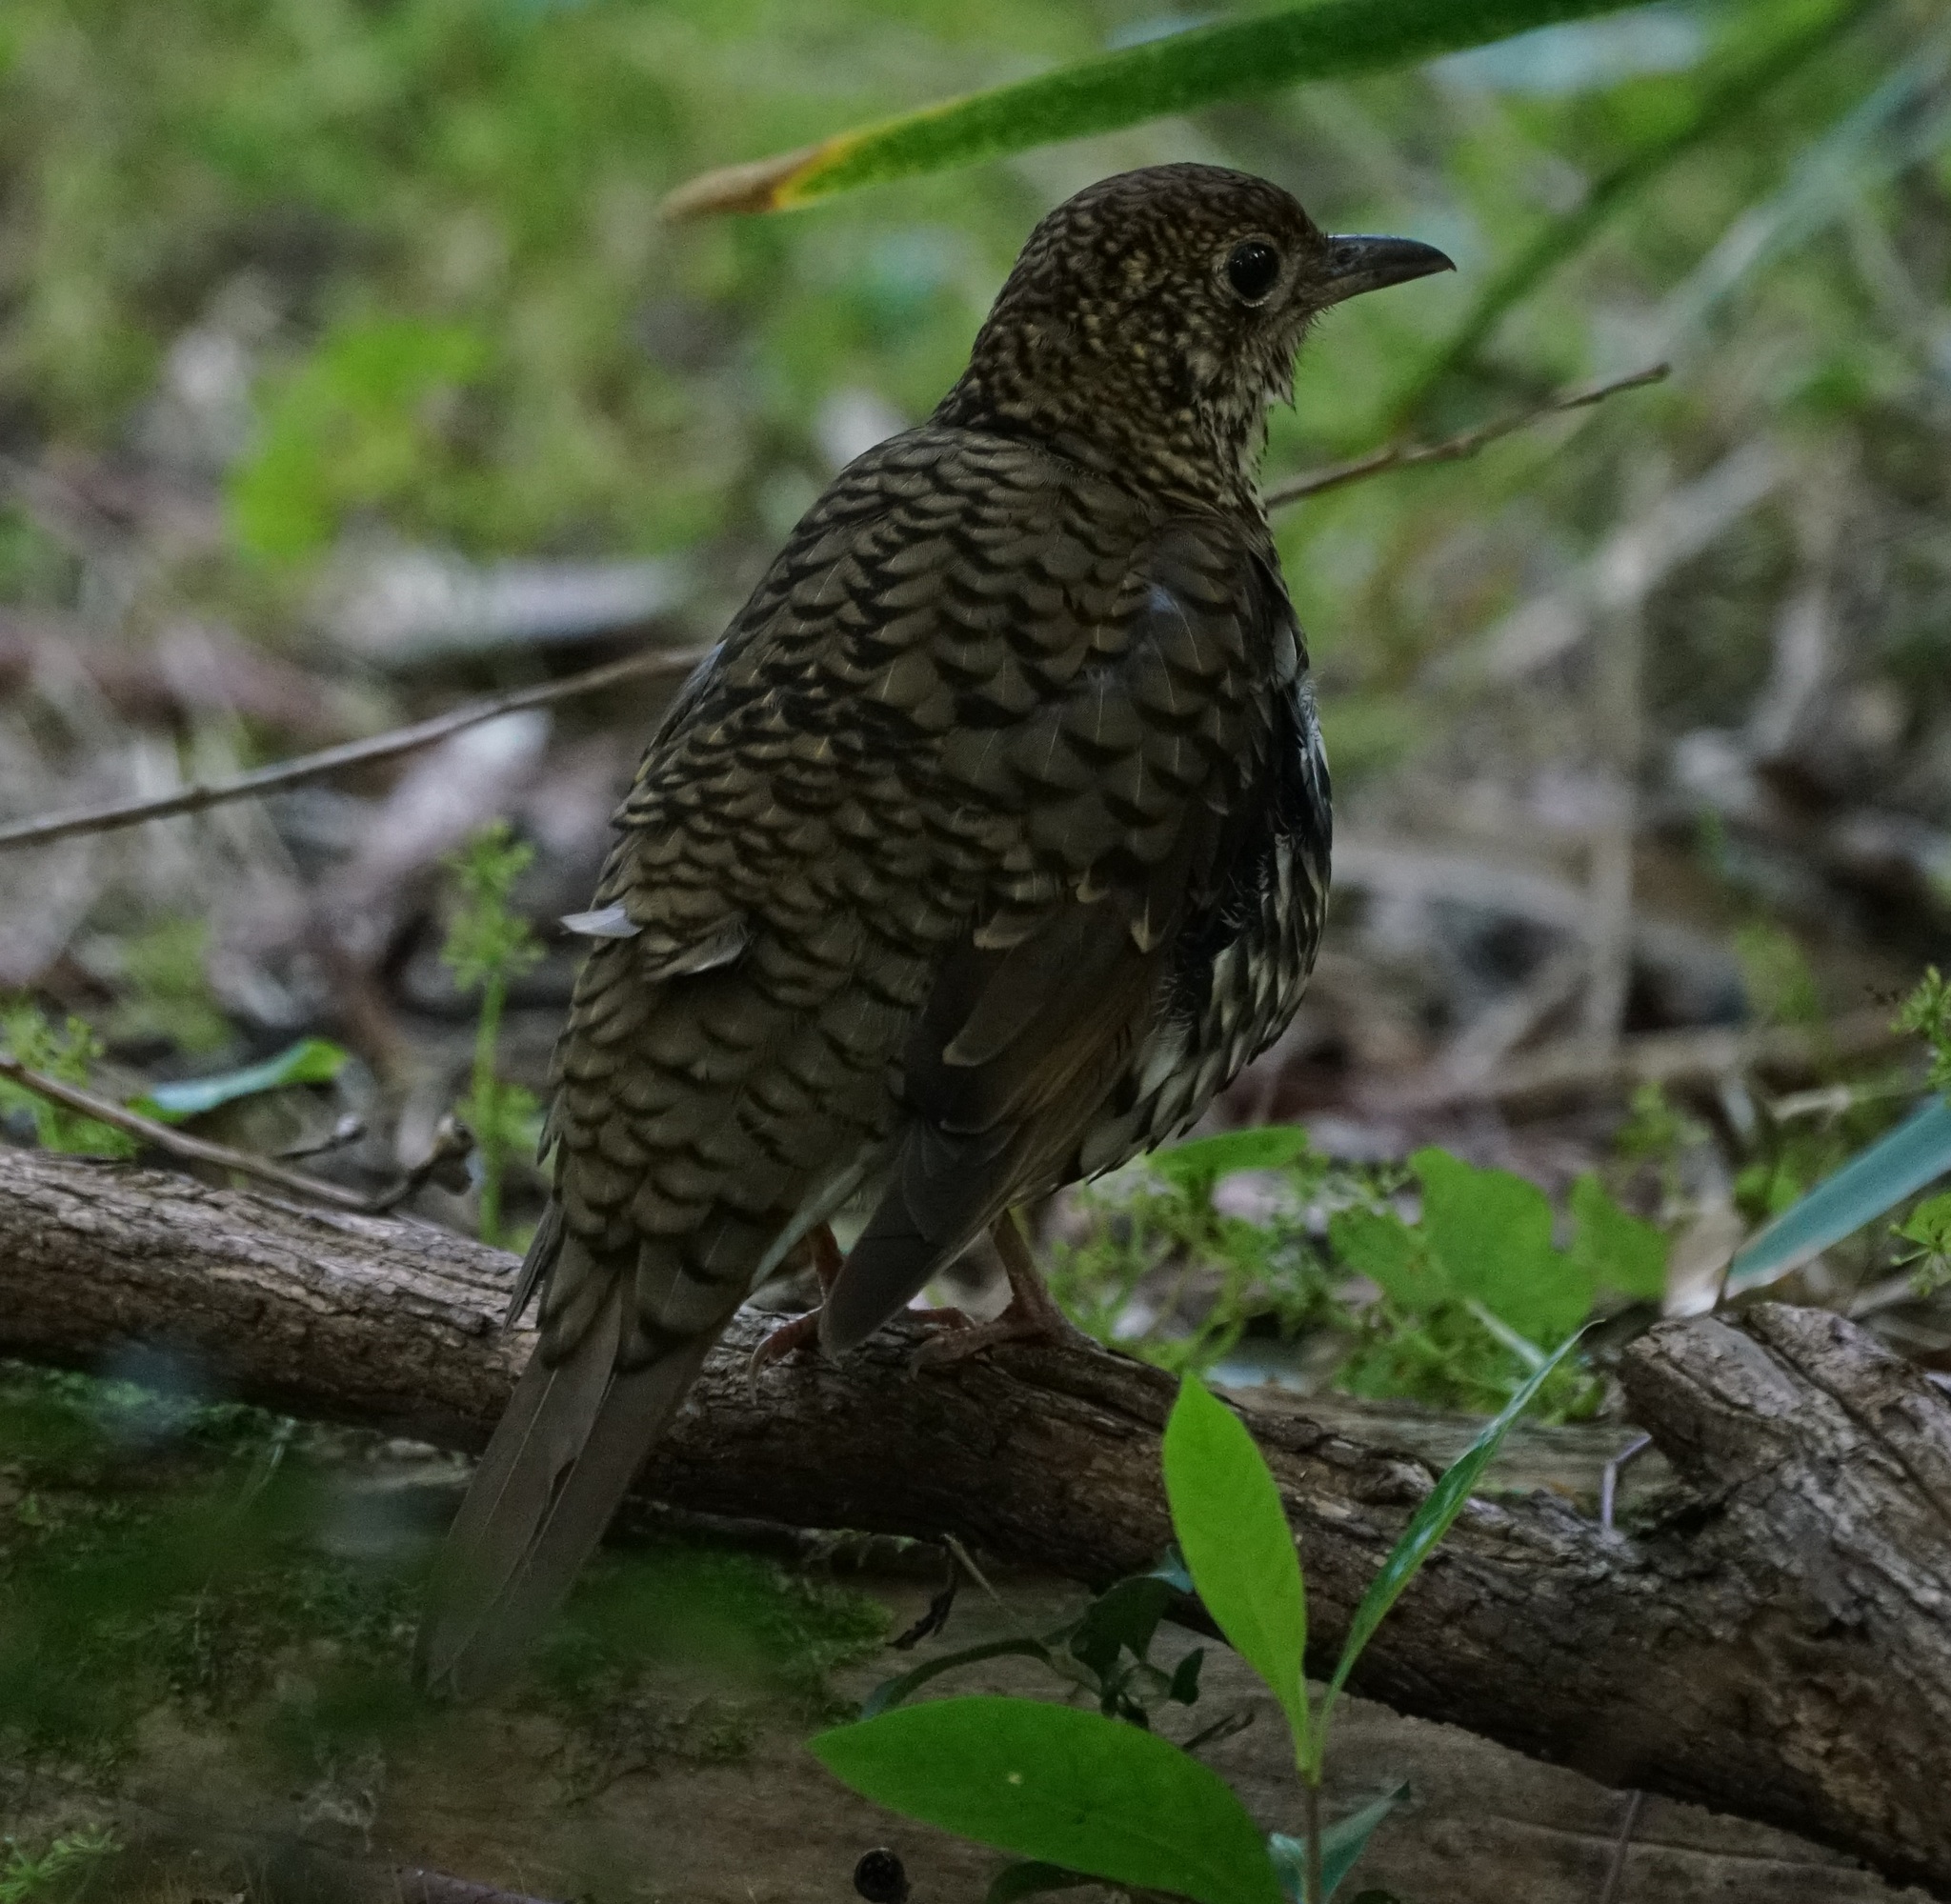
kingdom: Animalia
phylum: Chordata
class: Aves
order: Passeriformes
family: Turdidae
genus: Zoothera
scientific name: Zoothera lunulata
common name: Bassian thrush
